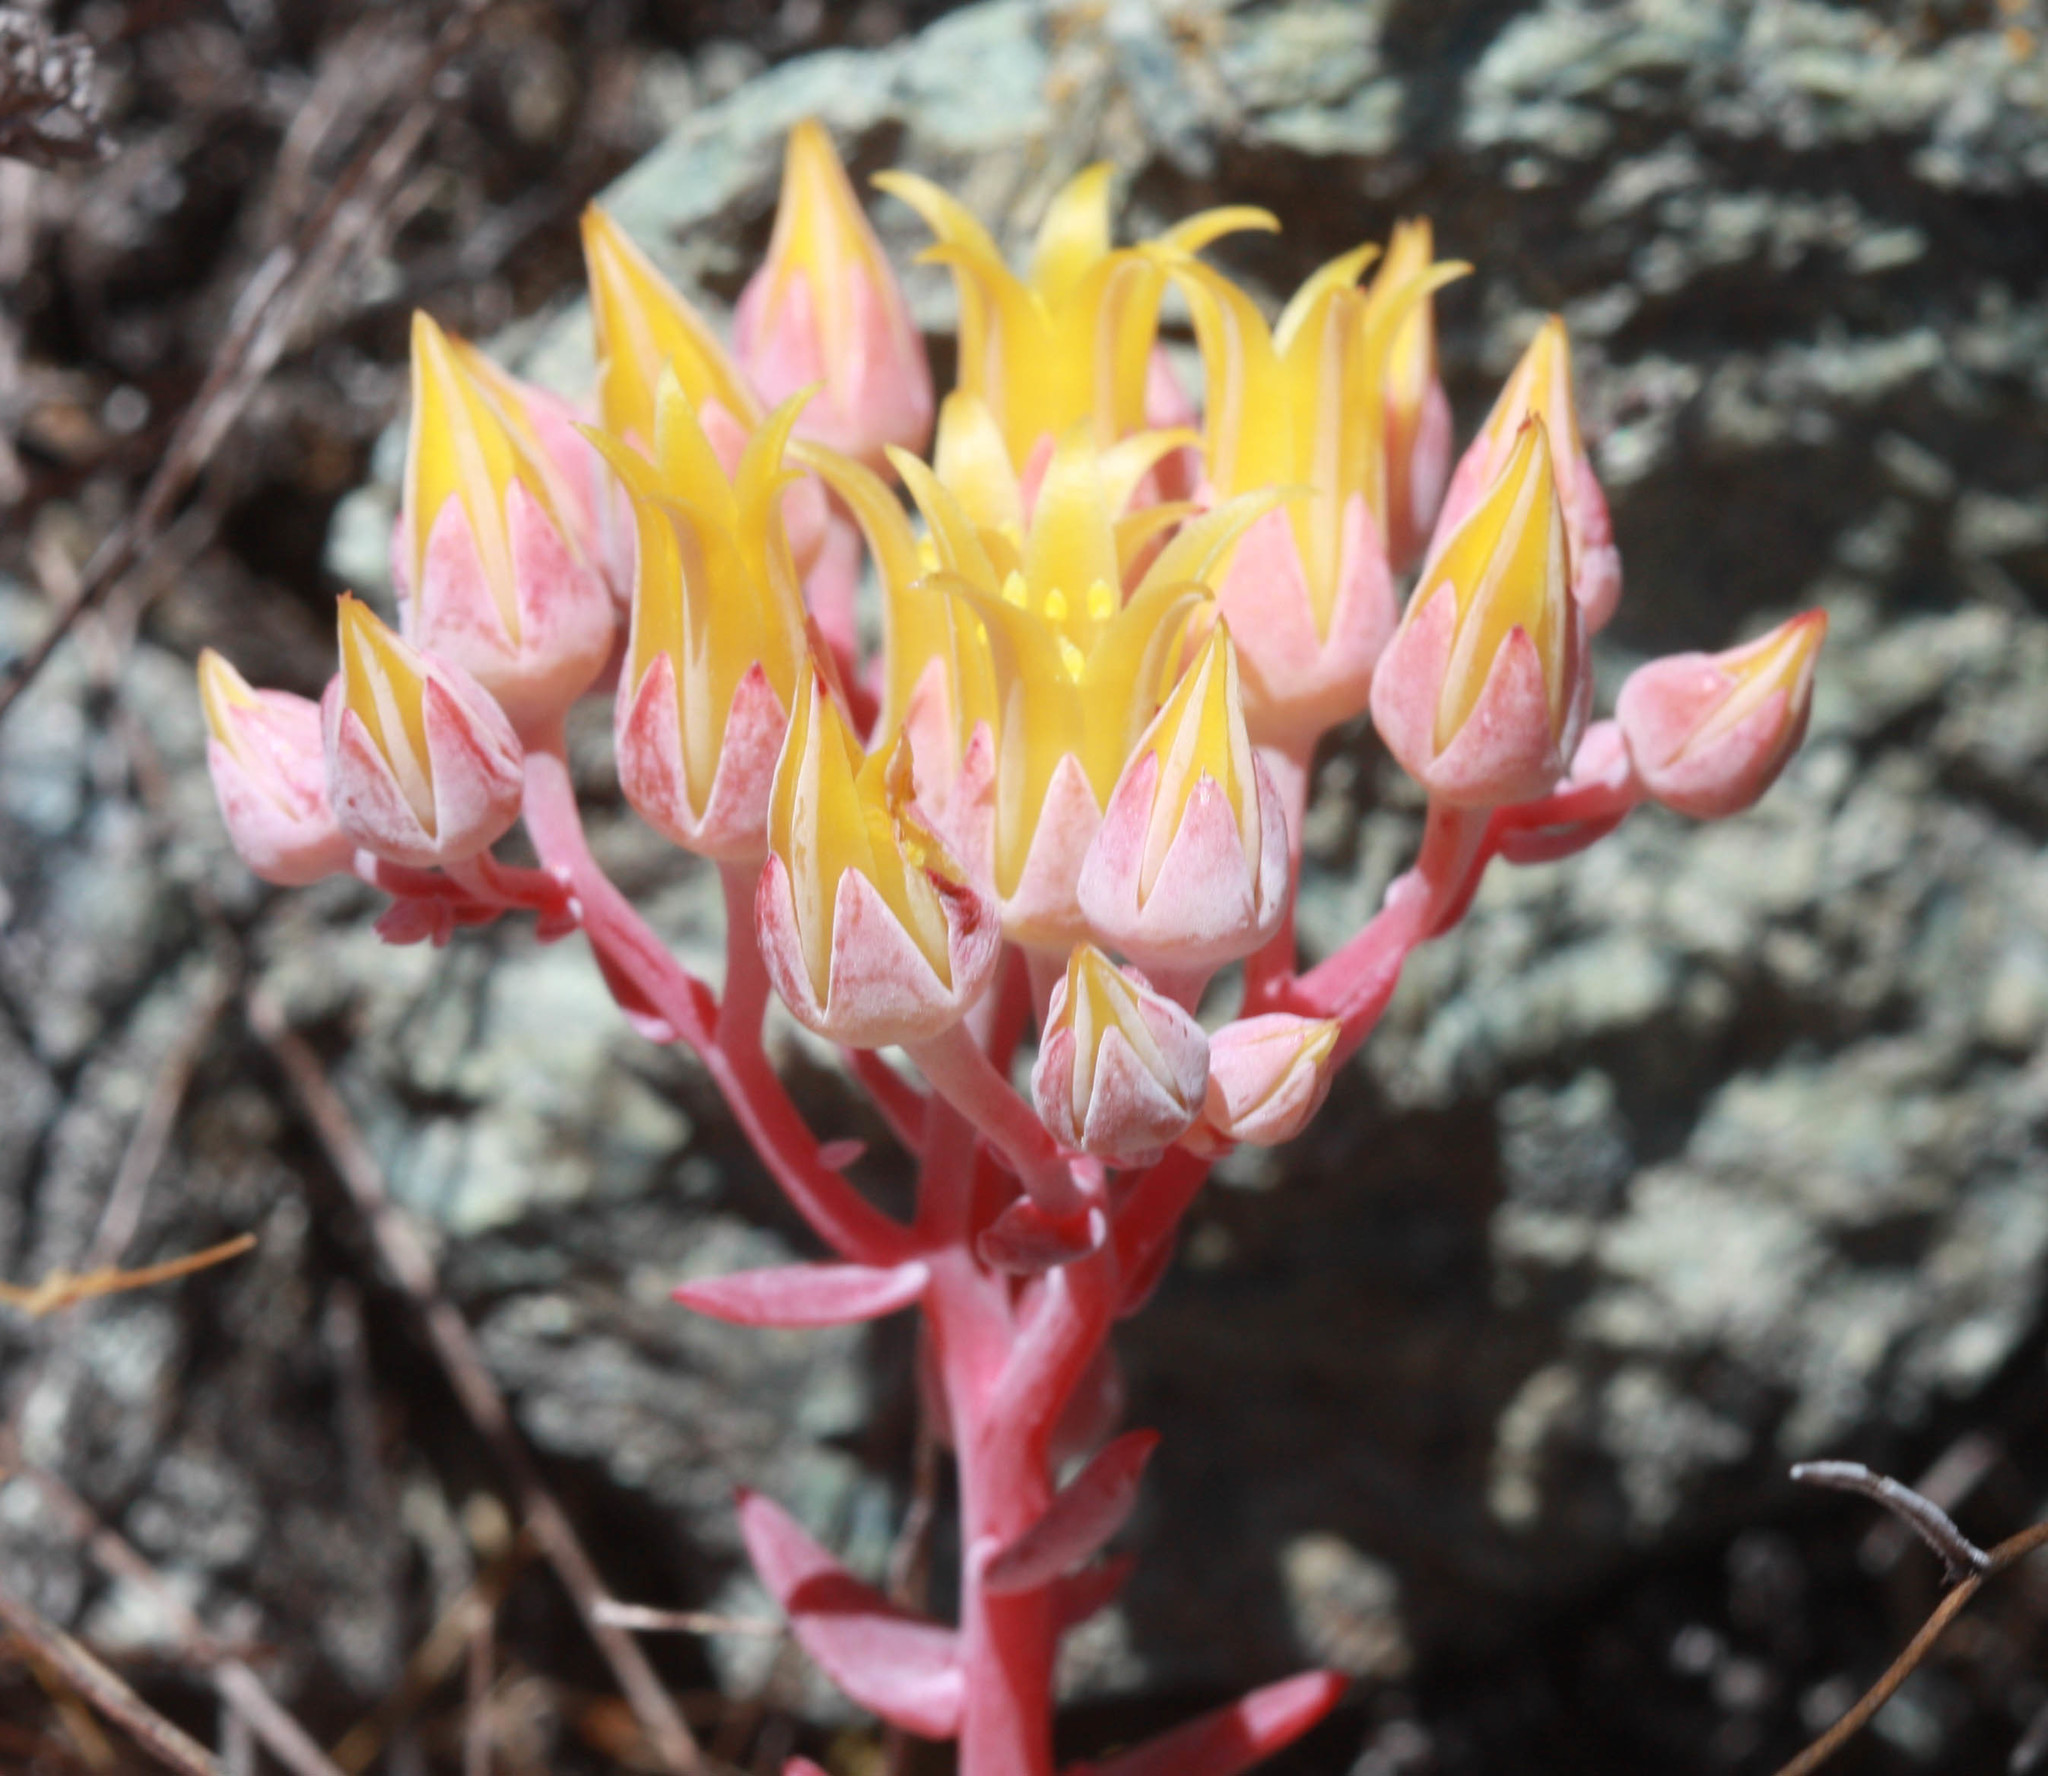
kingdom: Plantae
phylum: Tracheophyta
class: Magnoliopsida
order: Saxifragales
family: Crassulaceae
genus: Dudleya
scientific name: Dudleya cymosa
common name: Canyon dudleya
